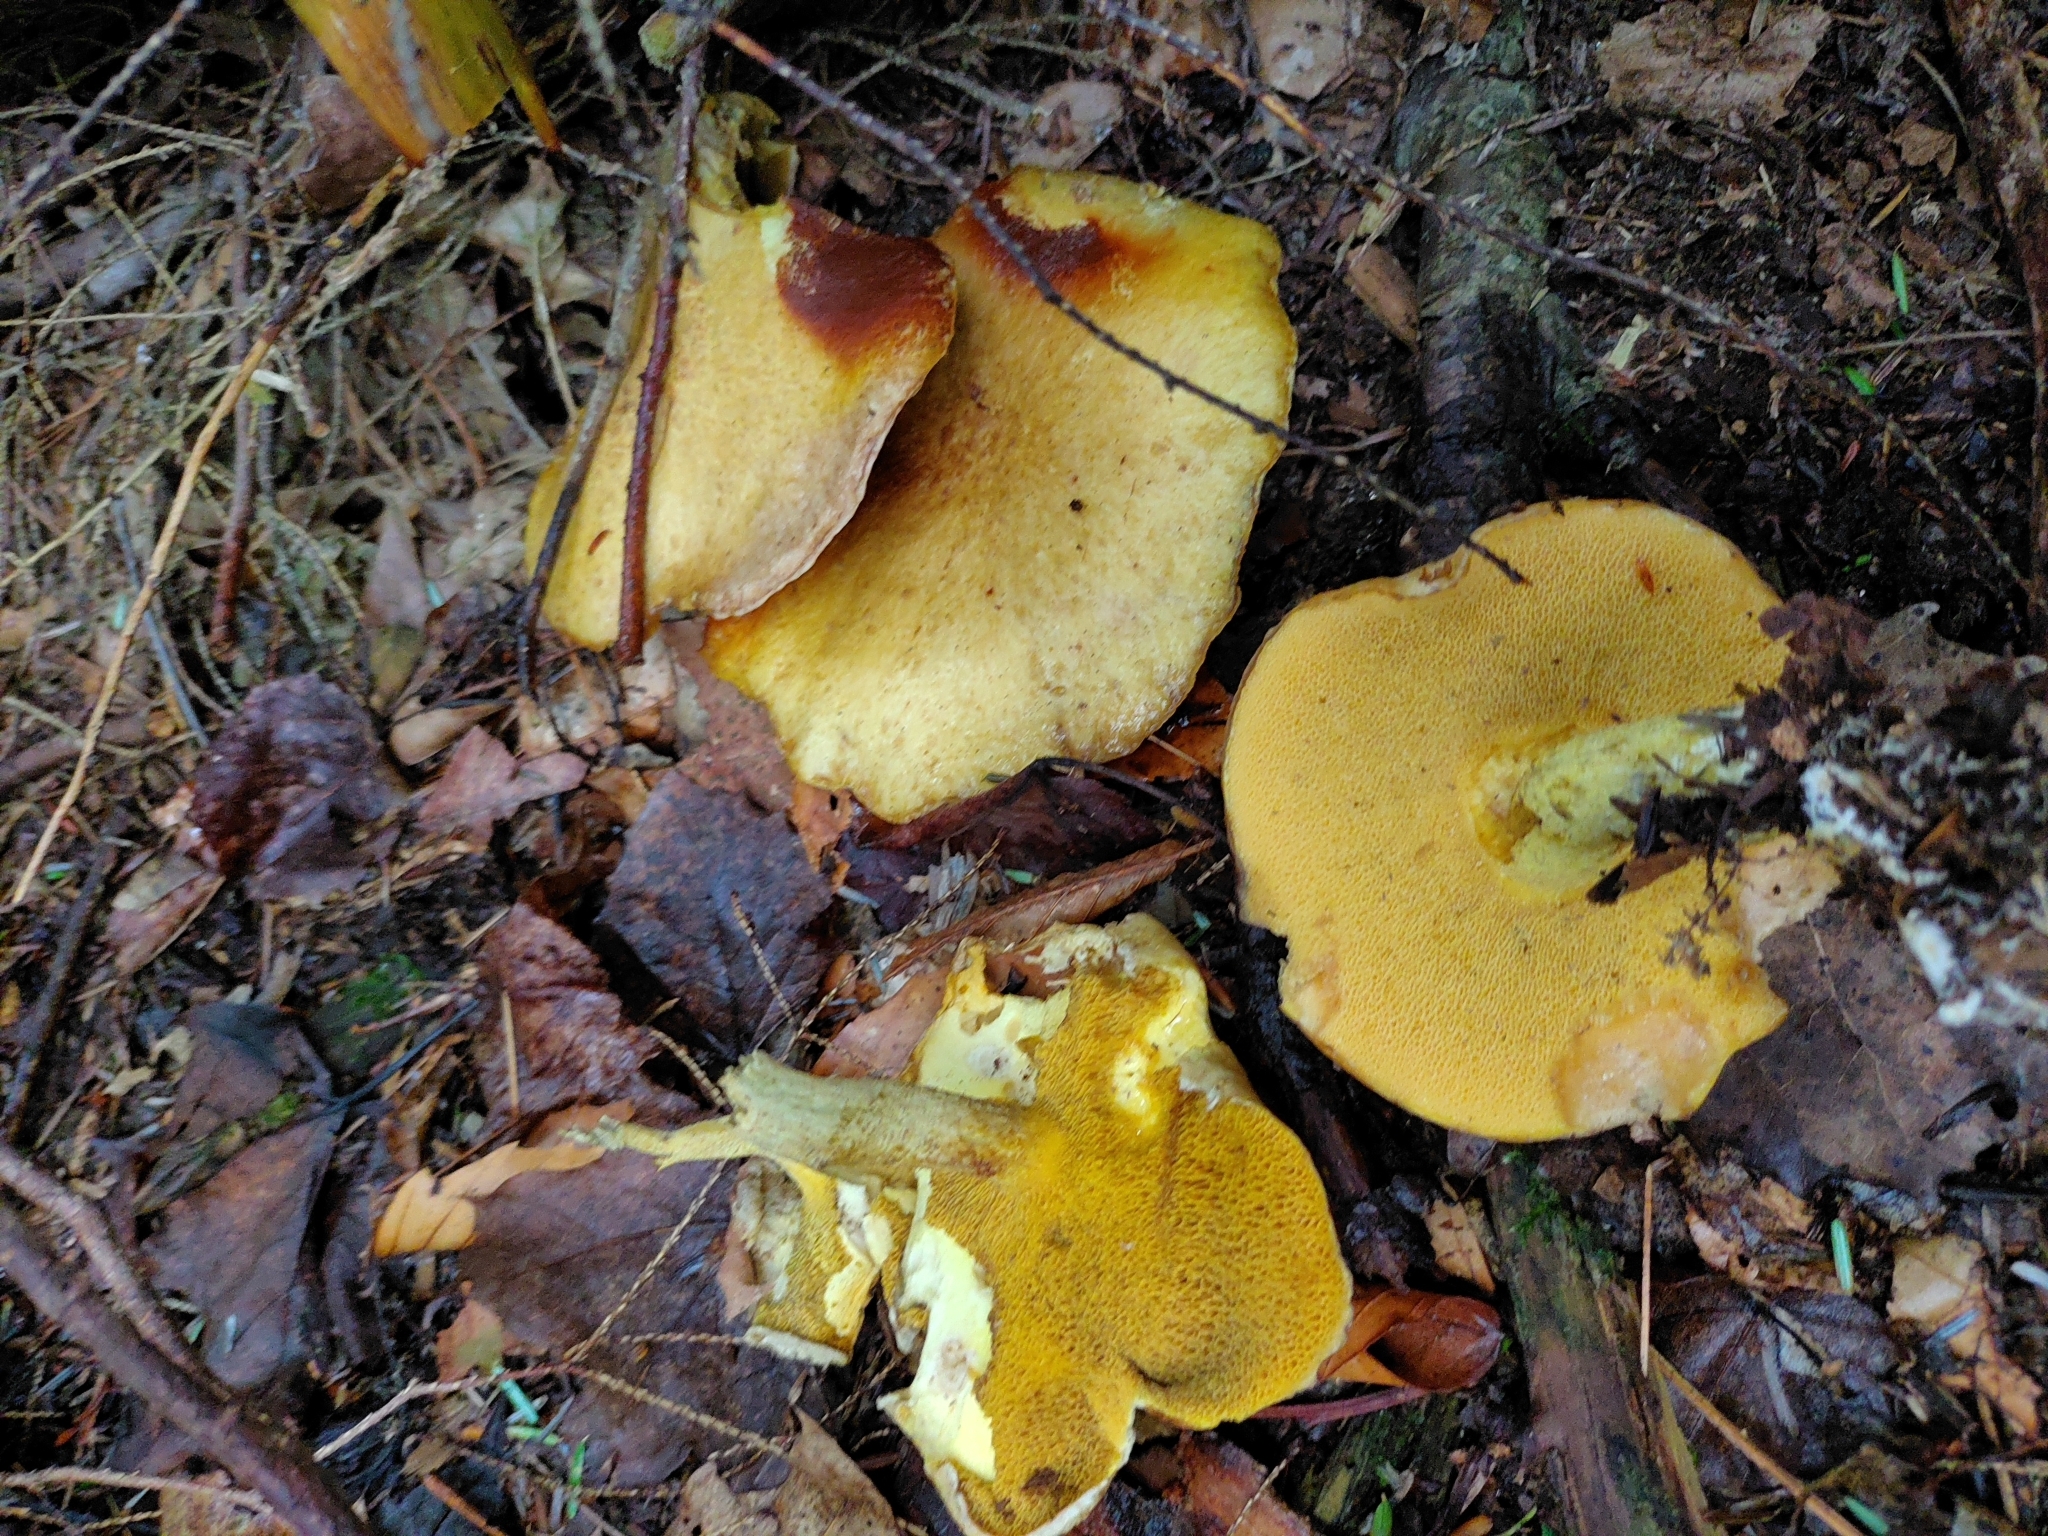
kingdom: Fungi
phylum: Basidiomycota
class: Agaricomycetes
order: Boletales
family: Suillaceae
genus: Suillus
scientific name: Suillus subaureus
